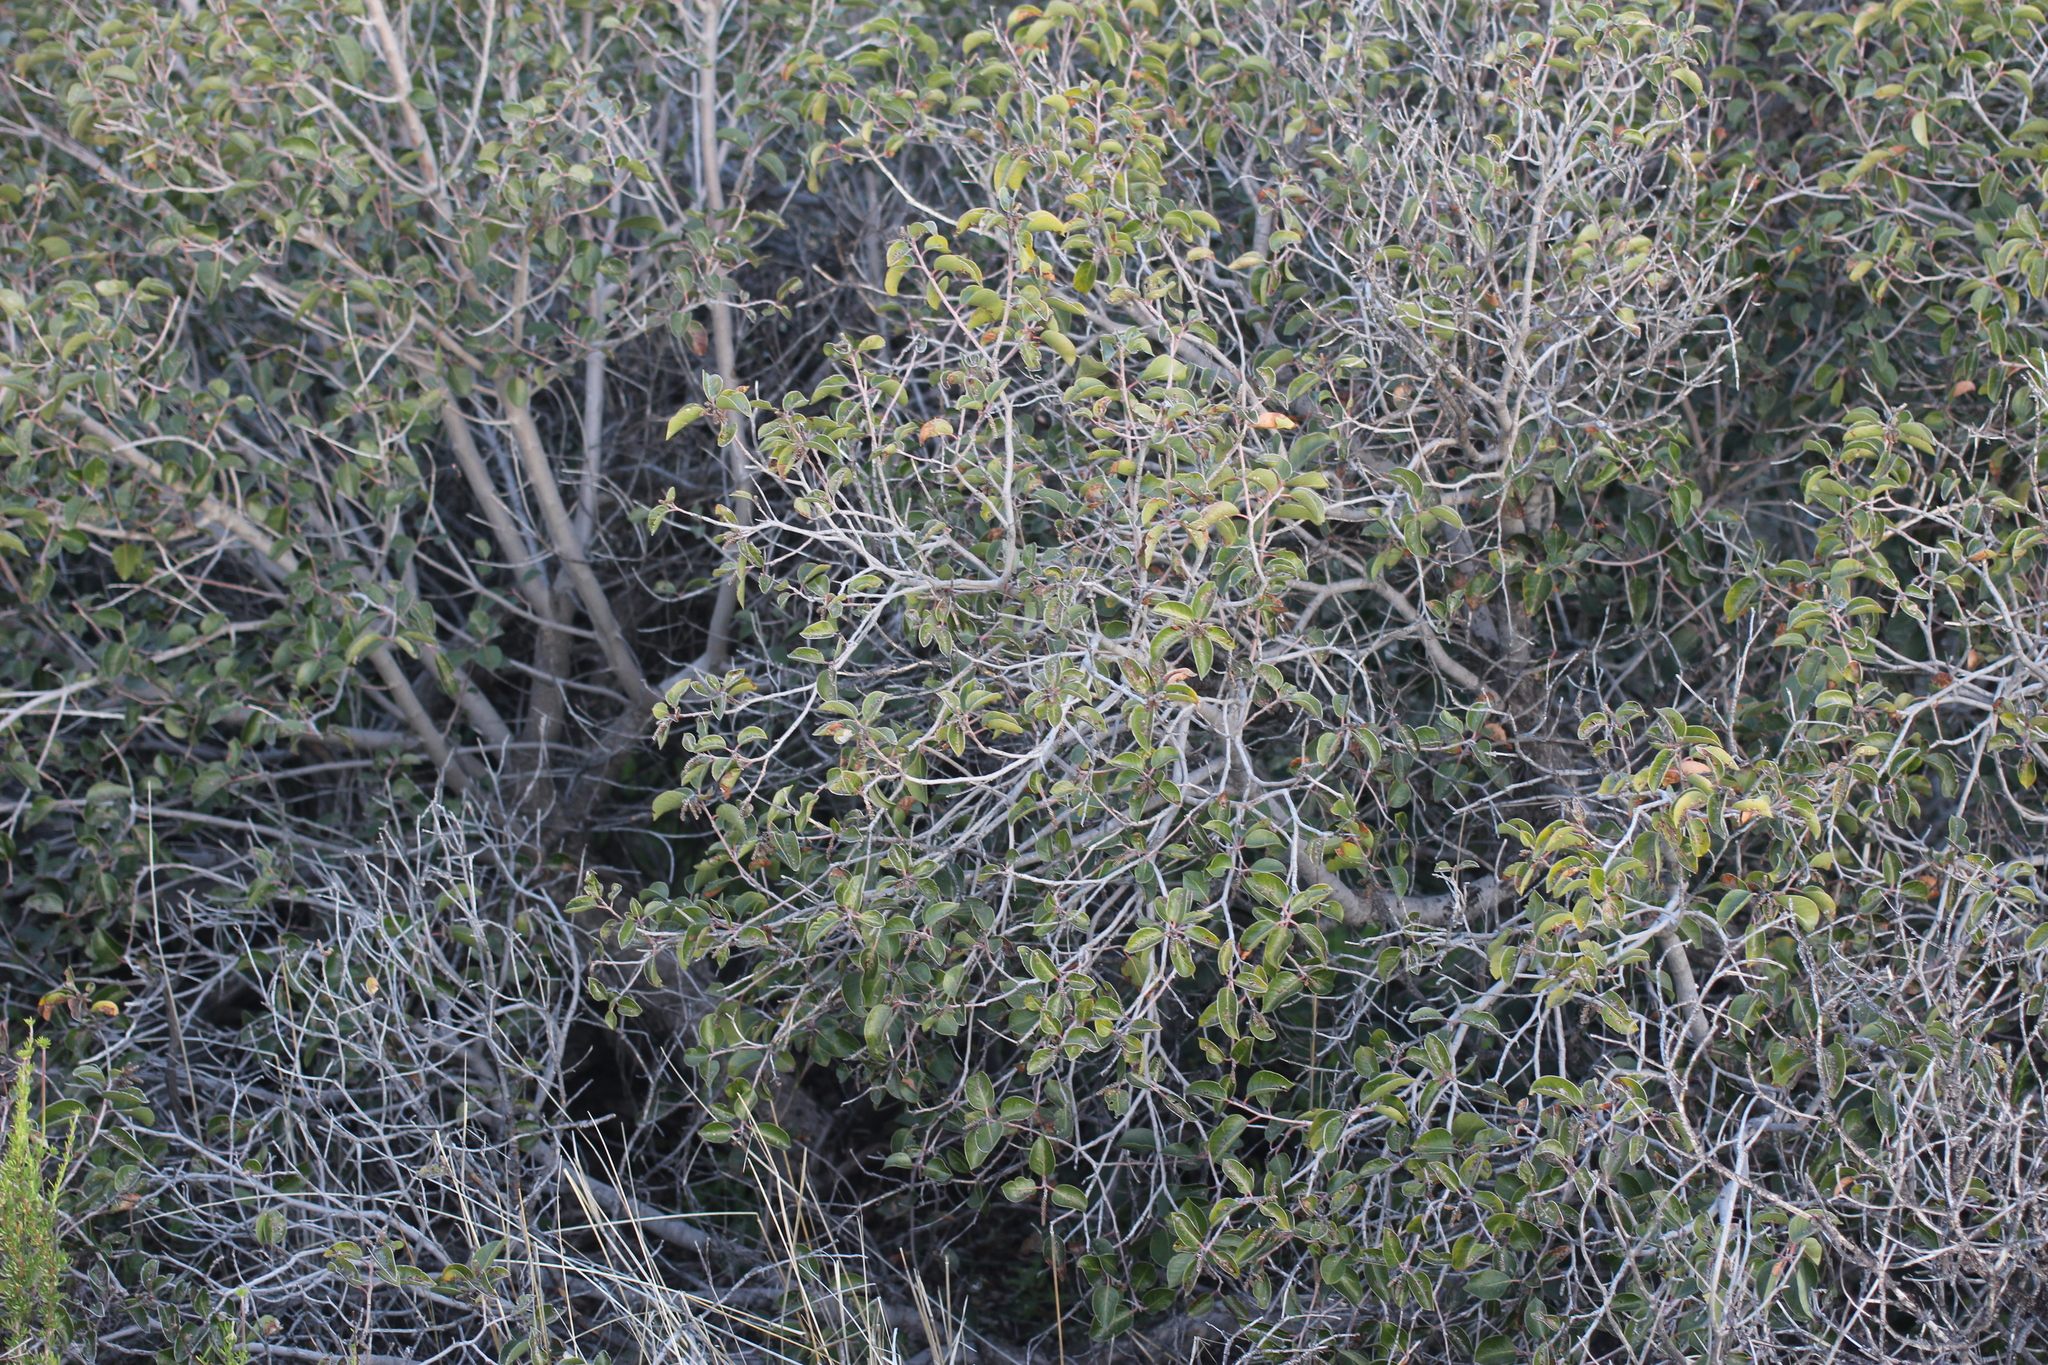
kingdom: Plantae
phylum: Tracheophyta
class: Magnoliopsida
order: Sapindales
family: Anacardiaceae
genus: Rhus
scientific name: Rhus ovata
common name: Sugar sumac
